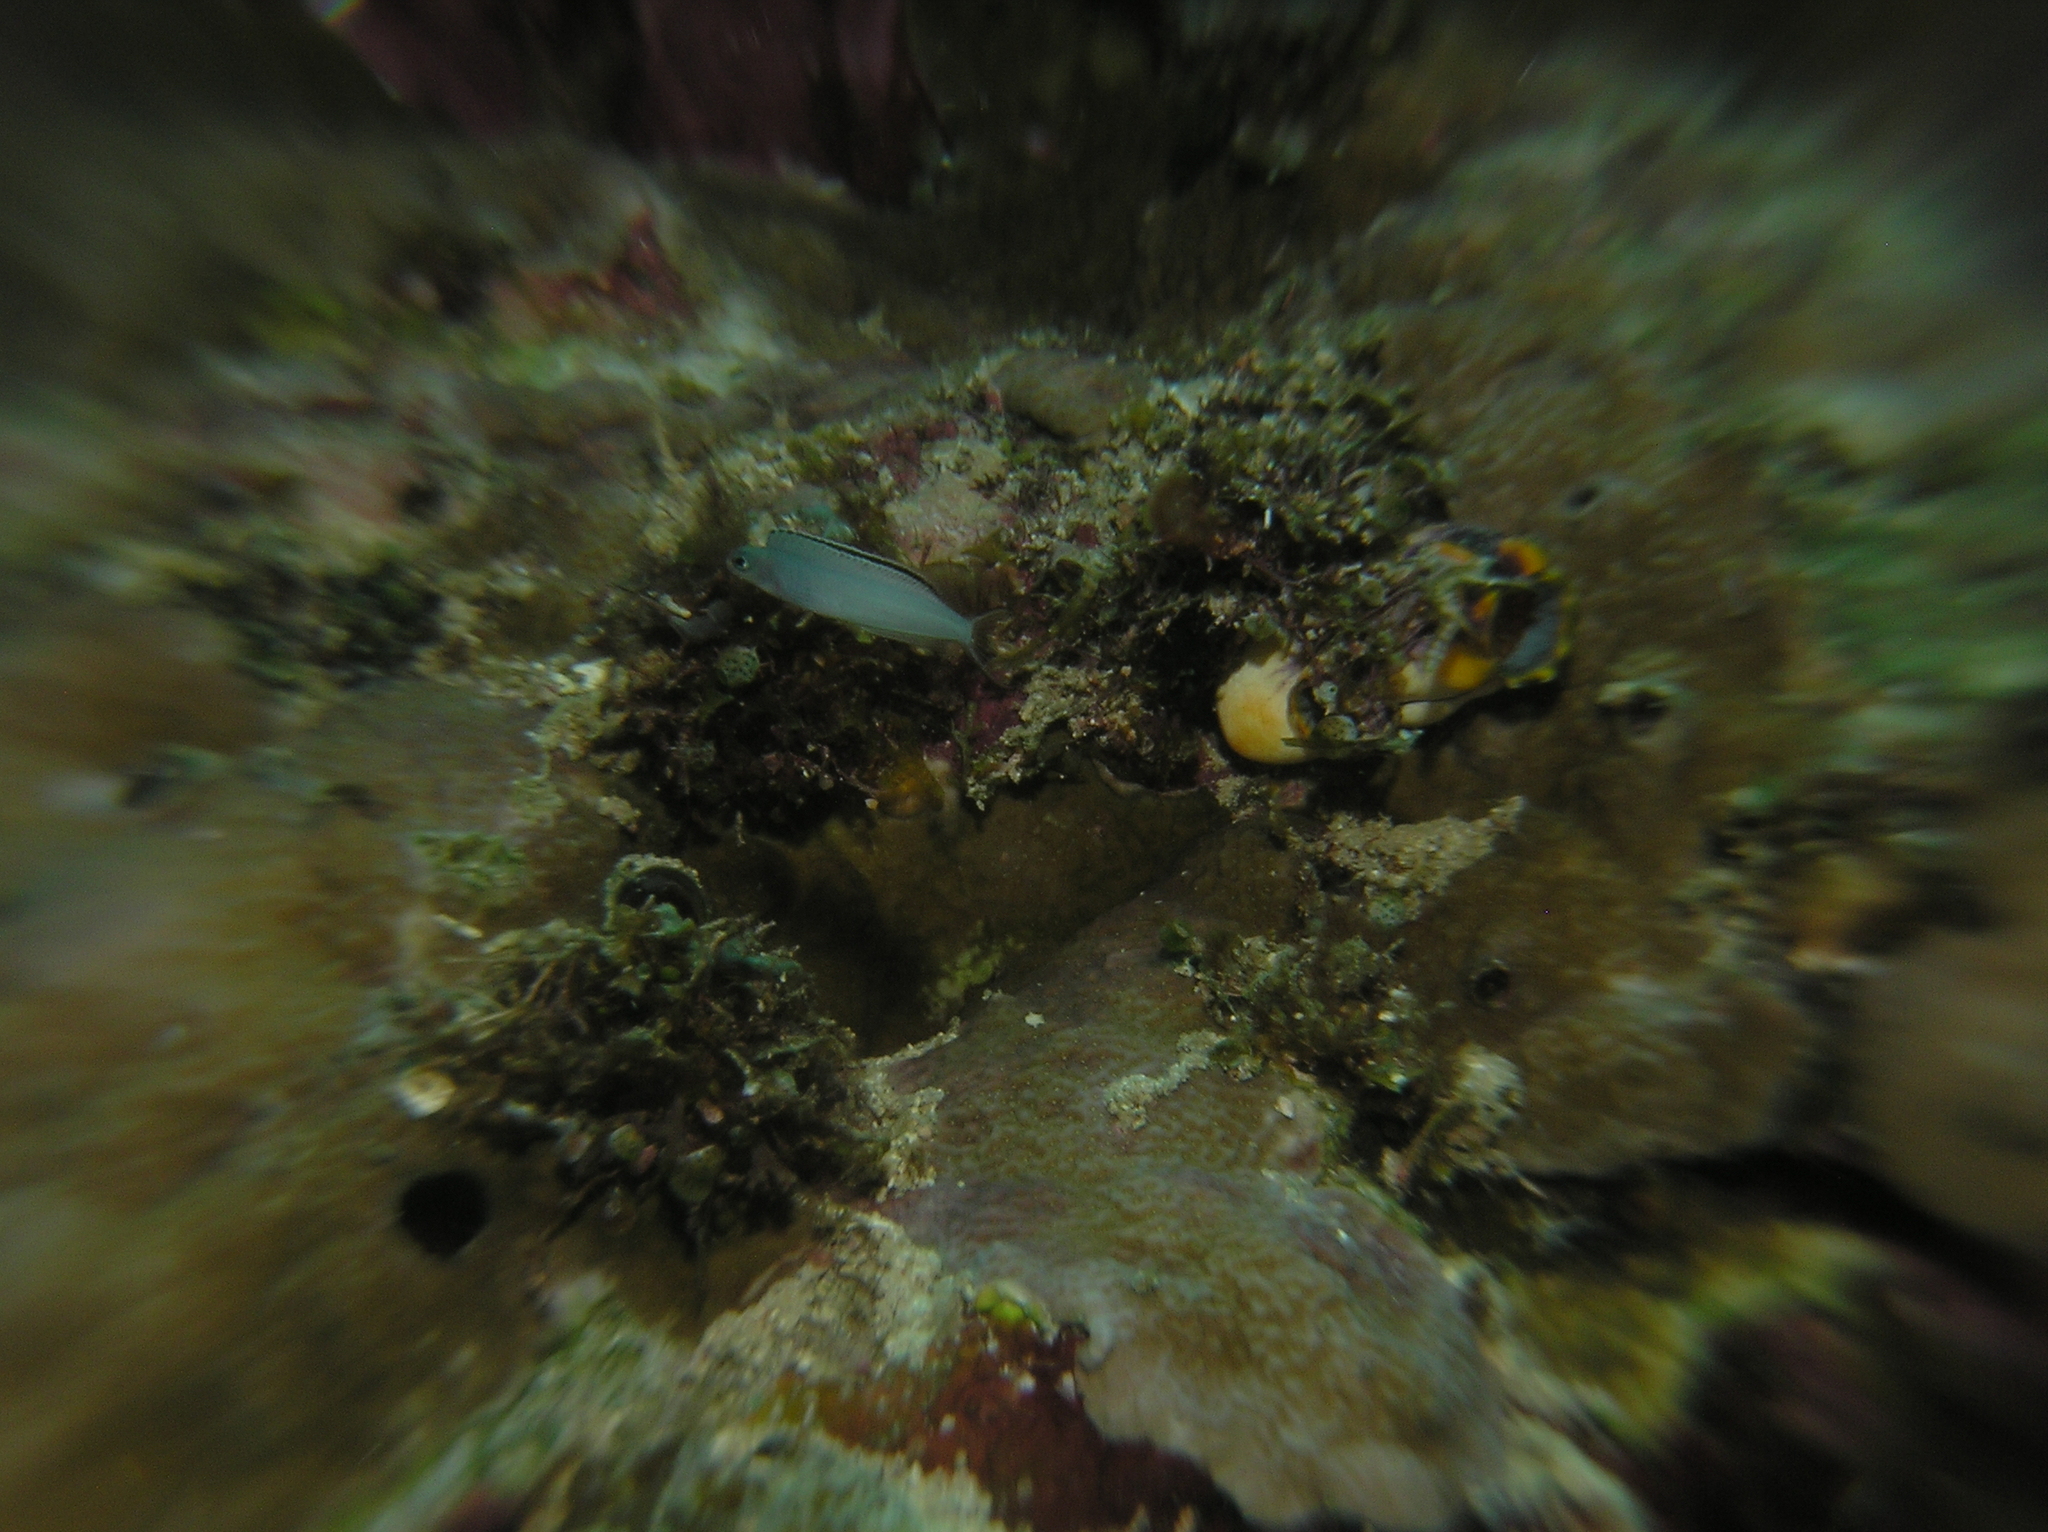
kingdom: Animalia
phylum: Chordata
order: Perciformes
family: Blenniidae
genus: Plagiotremus
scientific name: Plagiotremus laudandus
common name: Bicolour fangblenny
